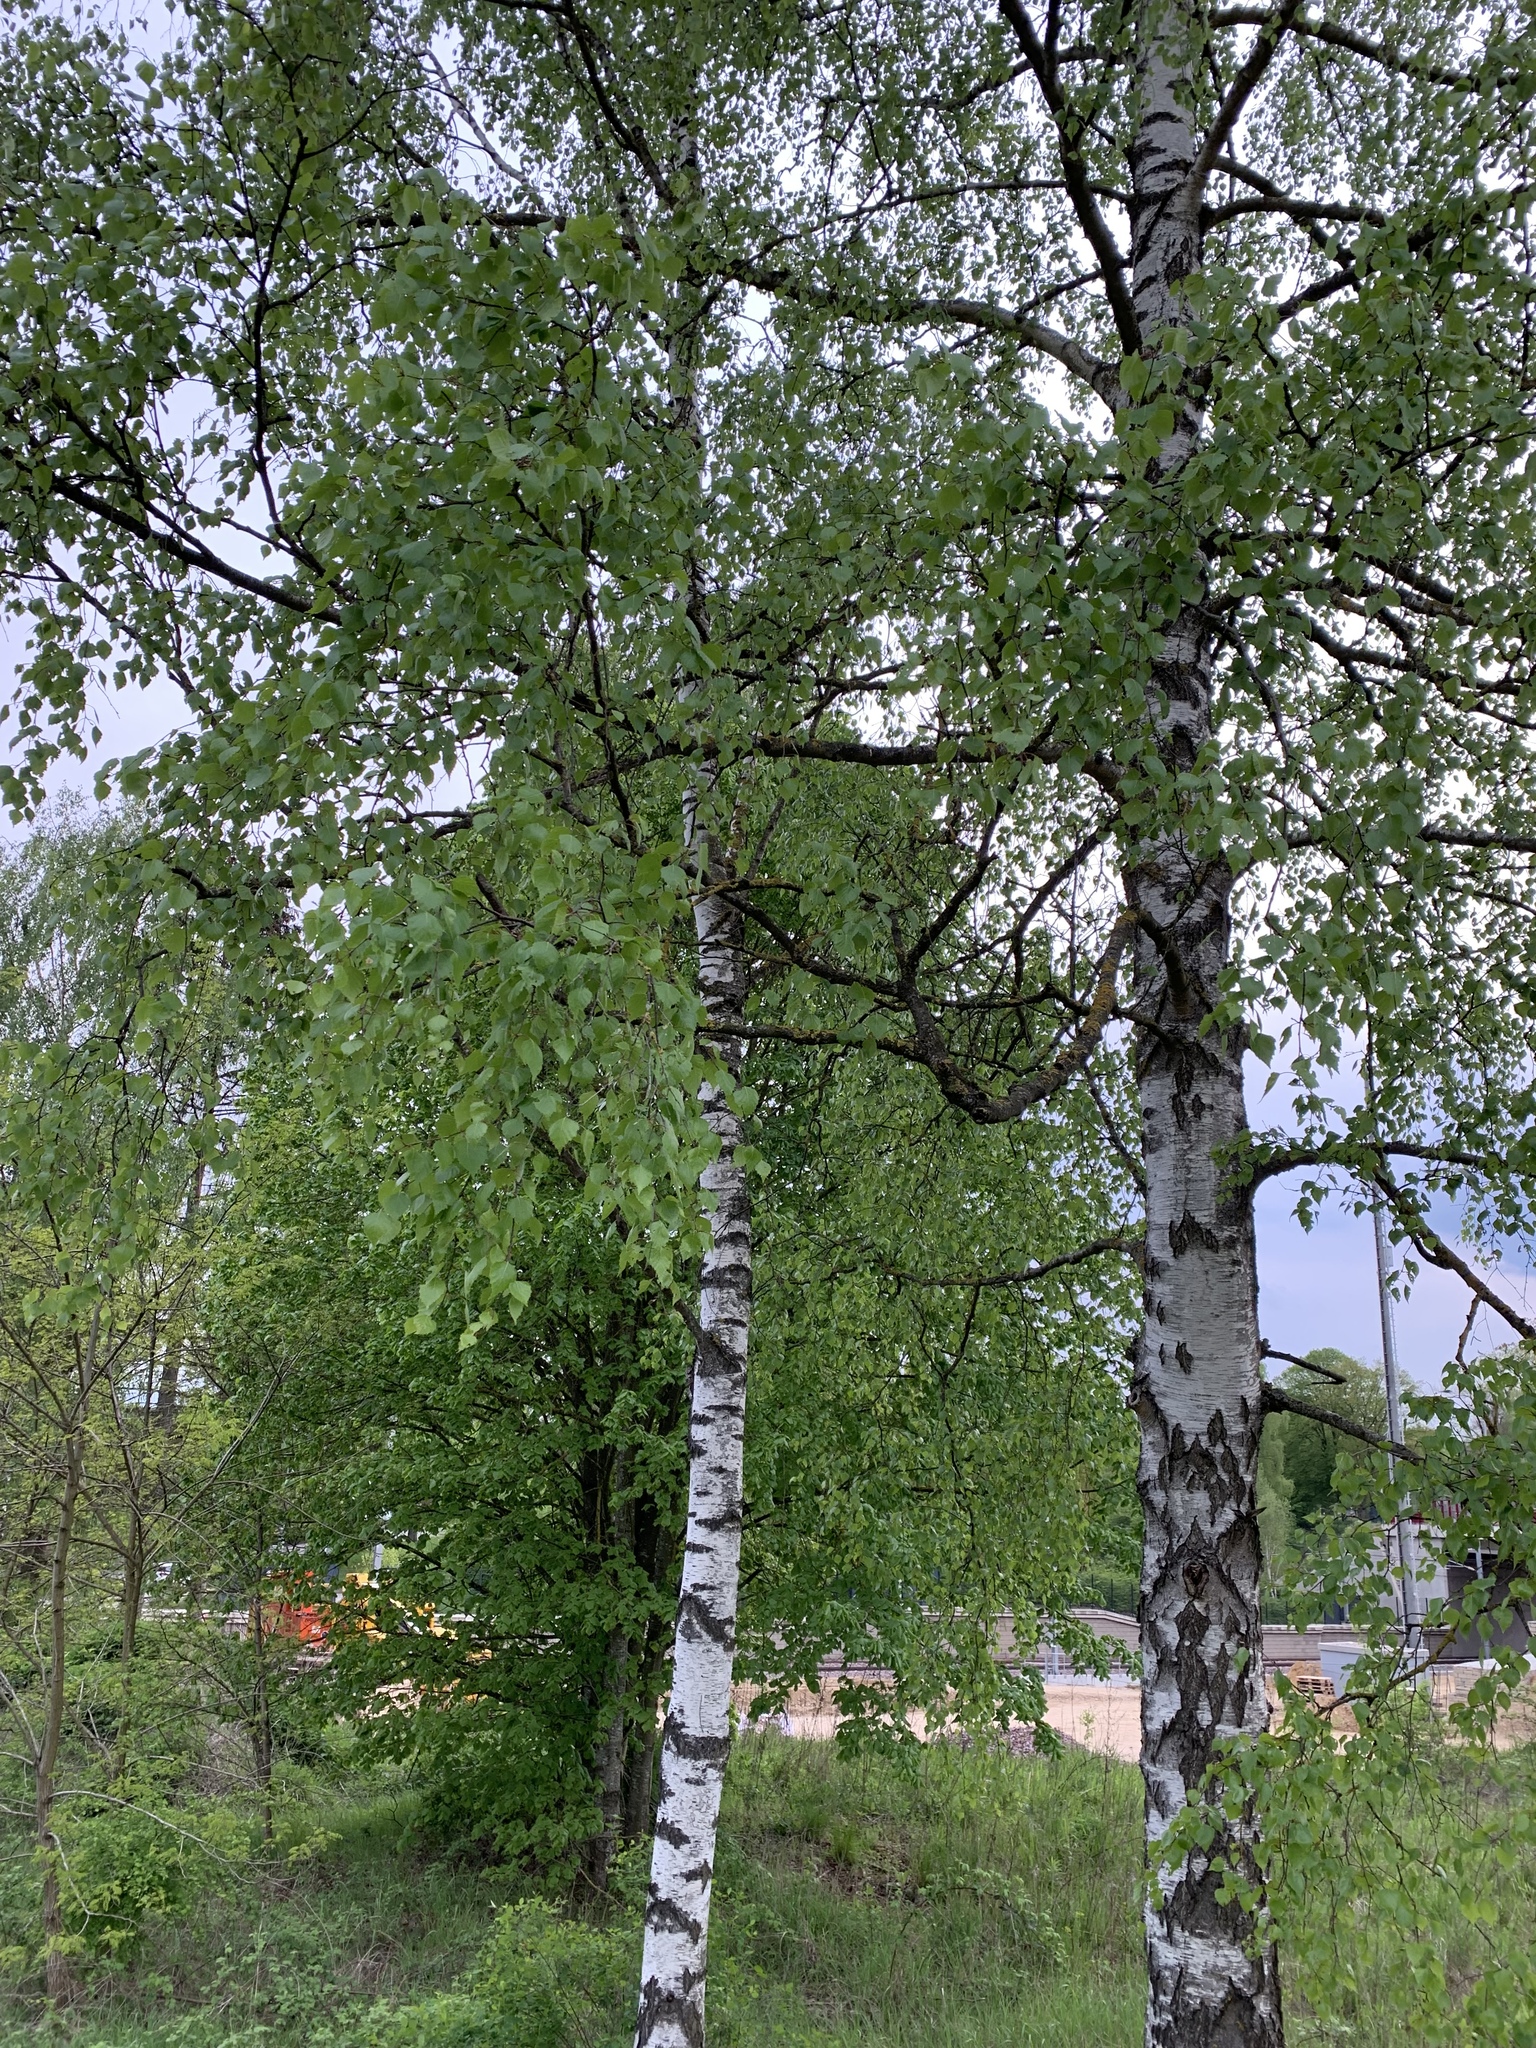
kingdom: Plantae
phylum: Tracheophyta
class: Magnoliopsida
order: Fagales
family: Betulaceae
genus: Betula
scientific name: Betula pendula
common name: Silver birch
